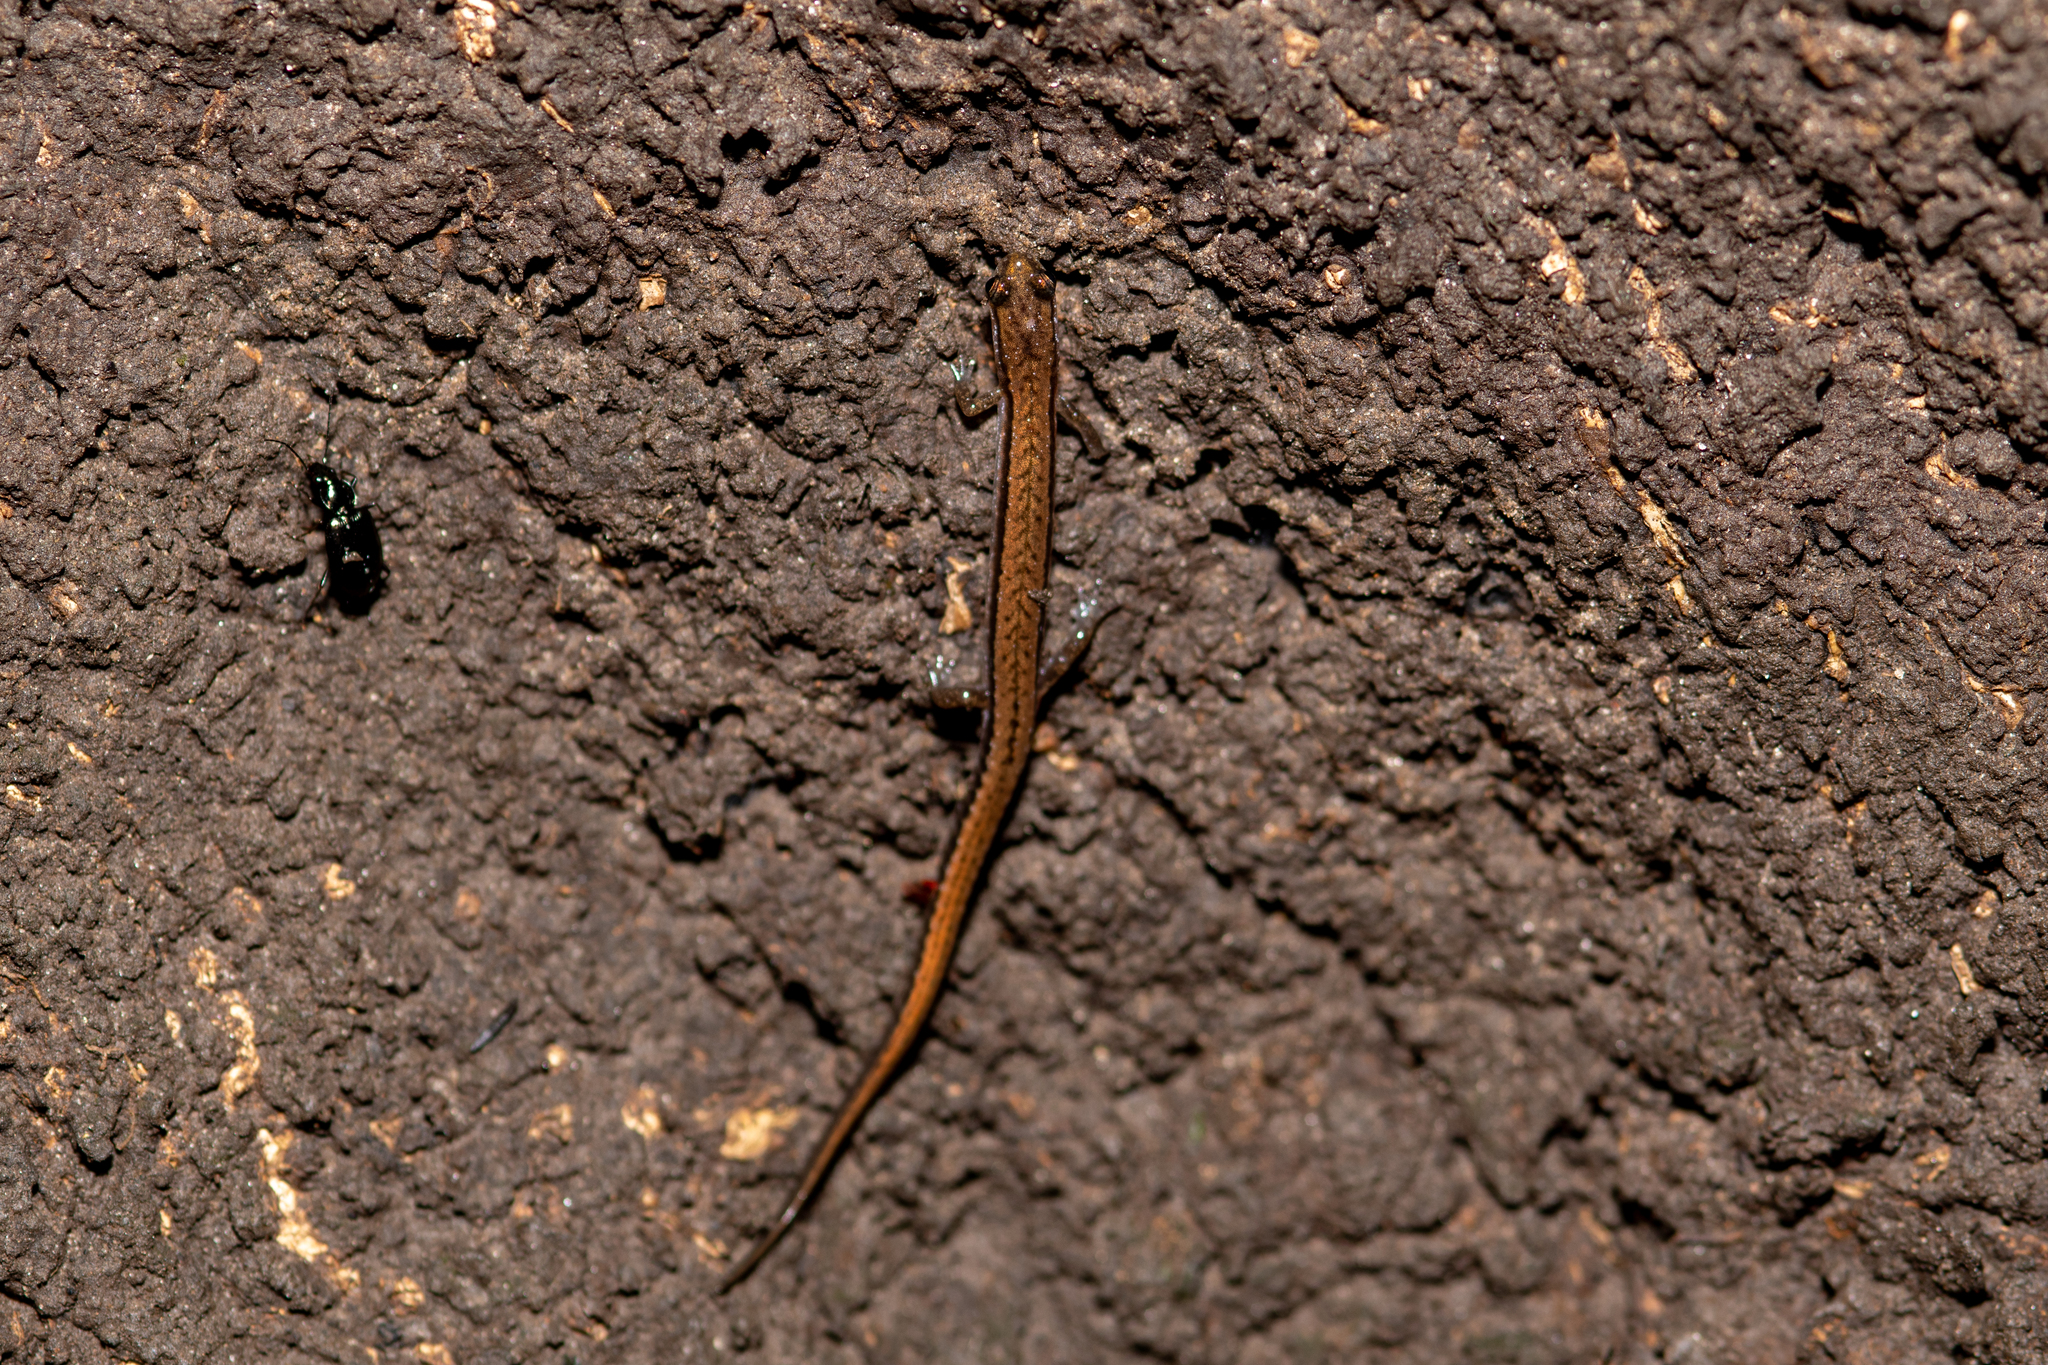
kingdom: Animalia
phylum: Chordata
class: Amphibia
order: Caudata
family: Plethodontidae
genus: Eurycea
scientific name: Eurycea quadridigitata
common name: Dwarf salamander
